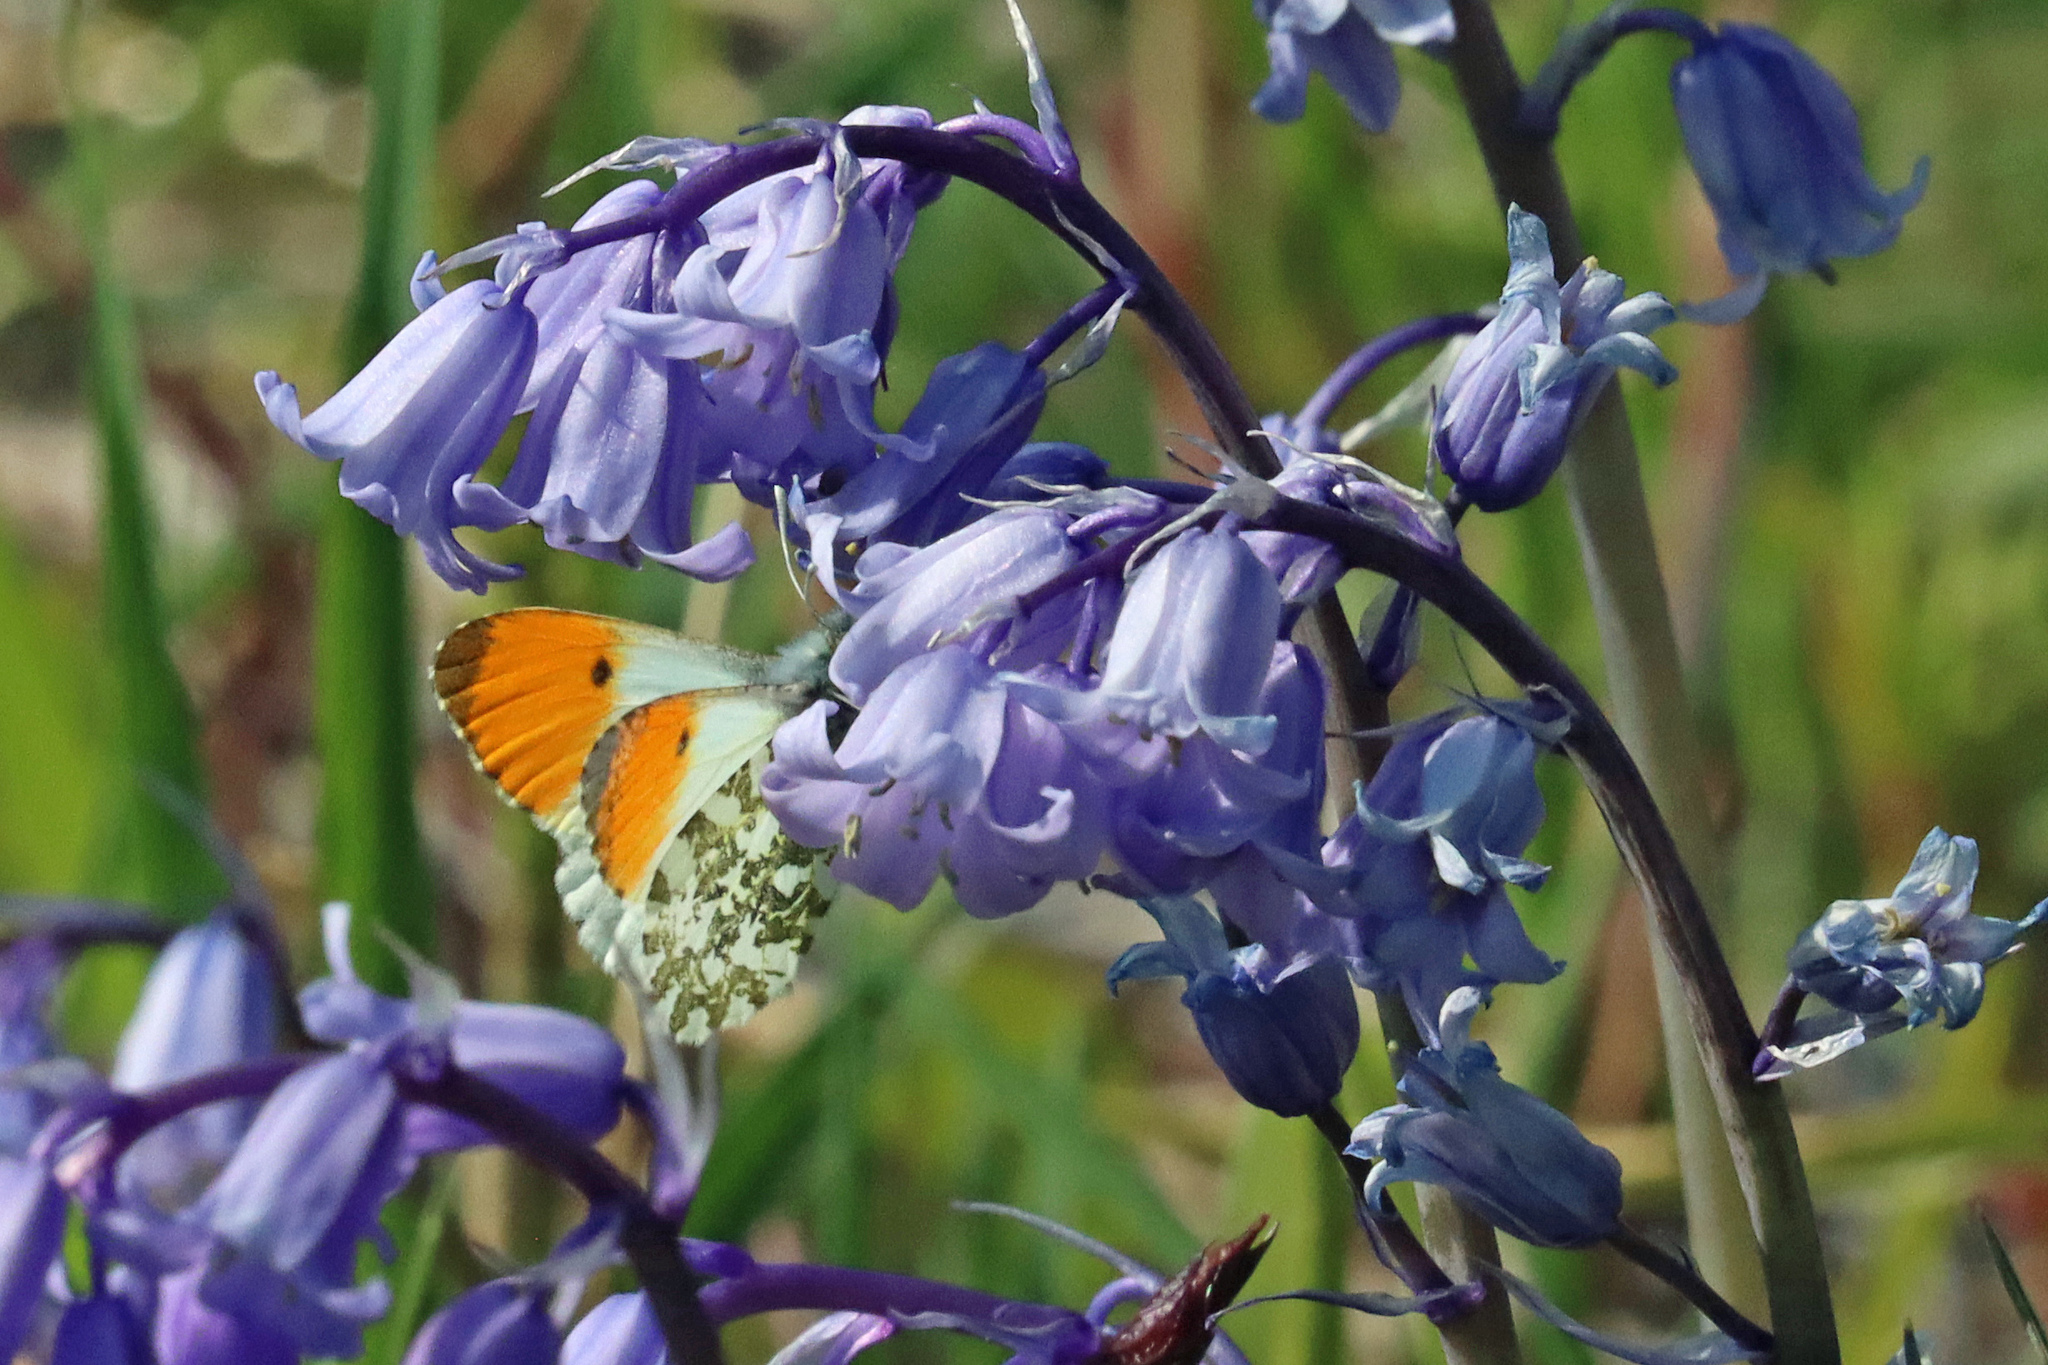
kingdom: Animalia
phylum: Arthropoda
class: Insecta
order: Lepidoptera
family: Pieridae
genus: Anthocharis
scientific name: Anthocharis cardamines
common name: Orange-tip
